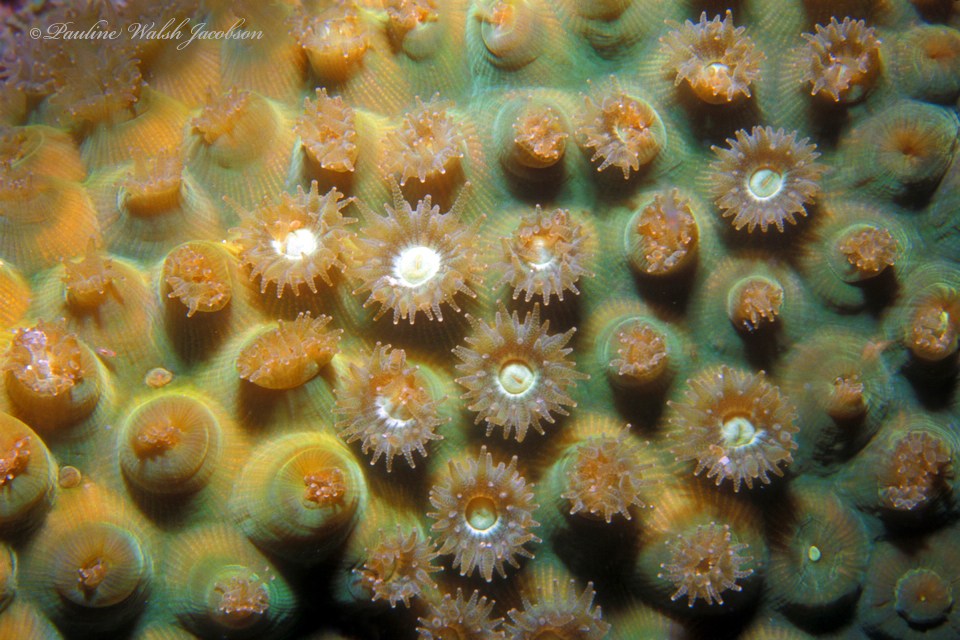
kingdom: Animalia
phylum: Cnidaria
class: Anthozoa
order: Scleractinia
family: Montastraeidae
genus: Montastraea
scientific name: Montastraea cavernosa
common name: Great star coral
